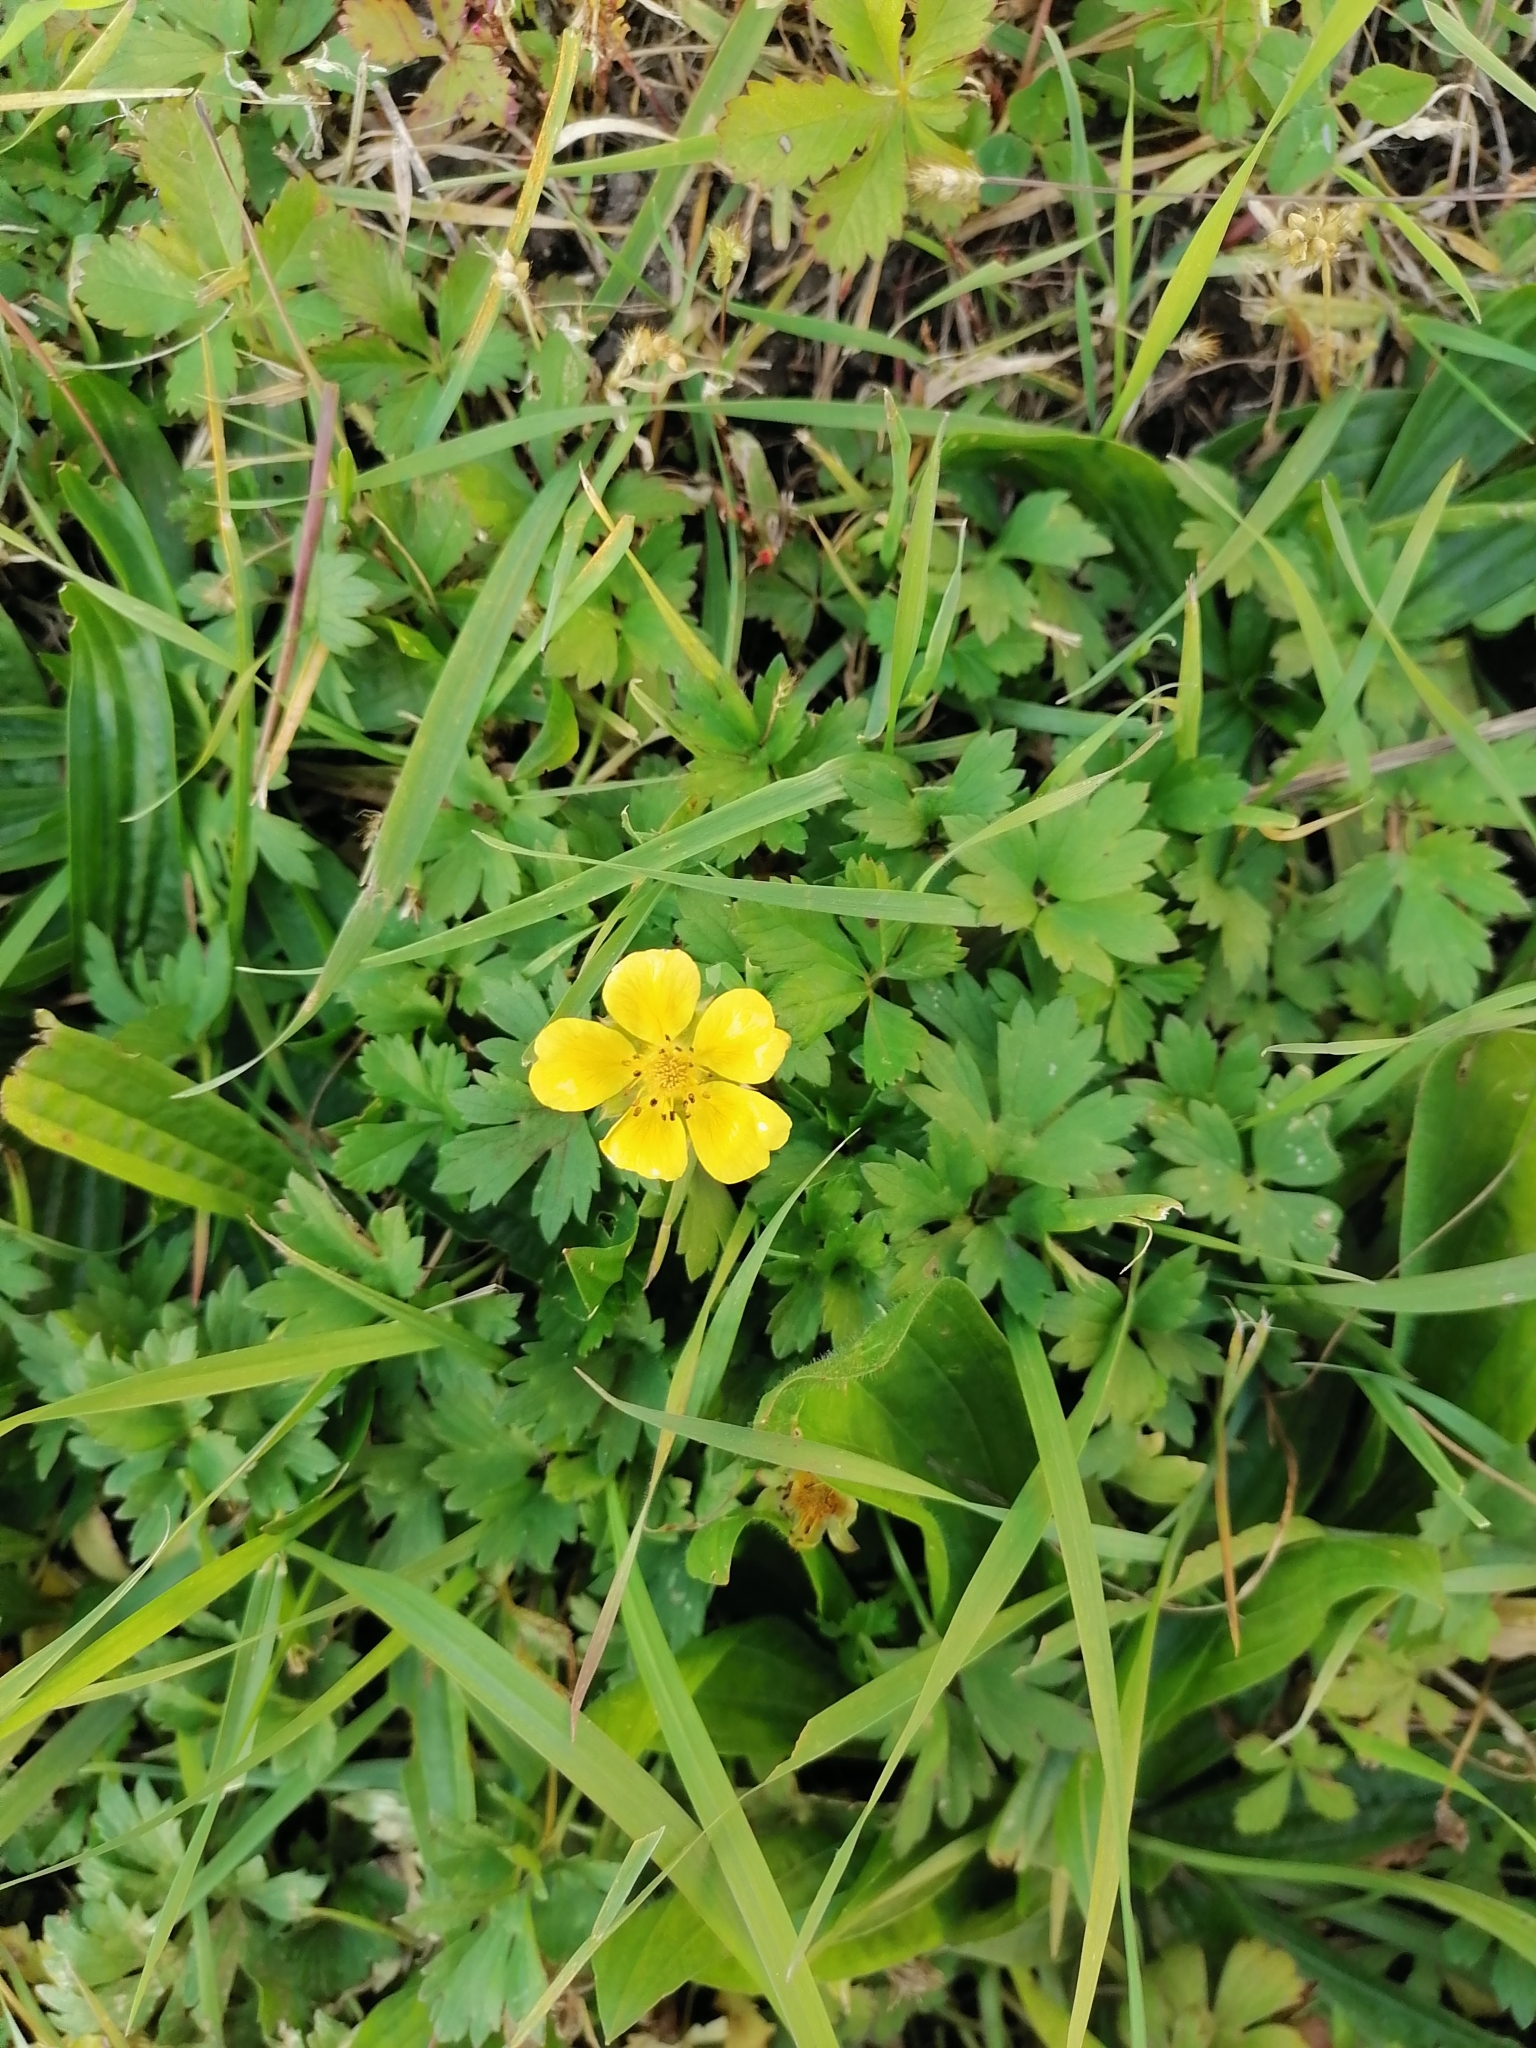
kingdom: Plantae
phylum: Tracheophyta
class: Magnoliopsida
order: Ranunculales
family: Ranunculaceae
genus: Ranunculus
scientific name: Ranunculus repens
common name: Creeping buttercup
